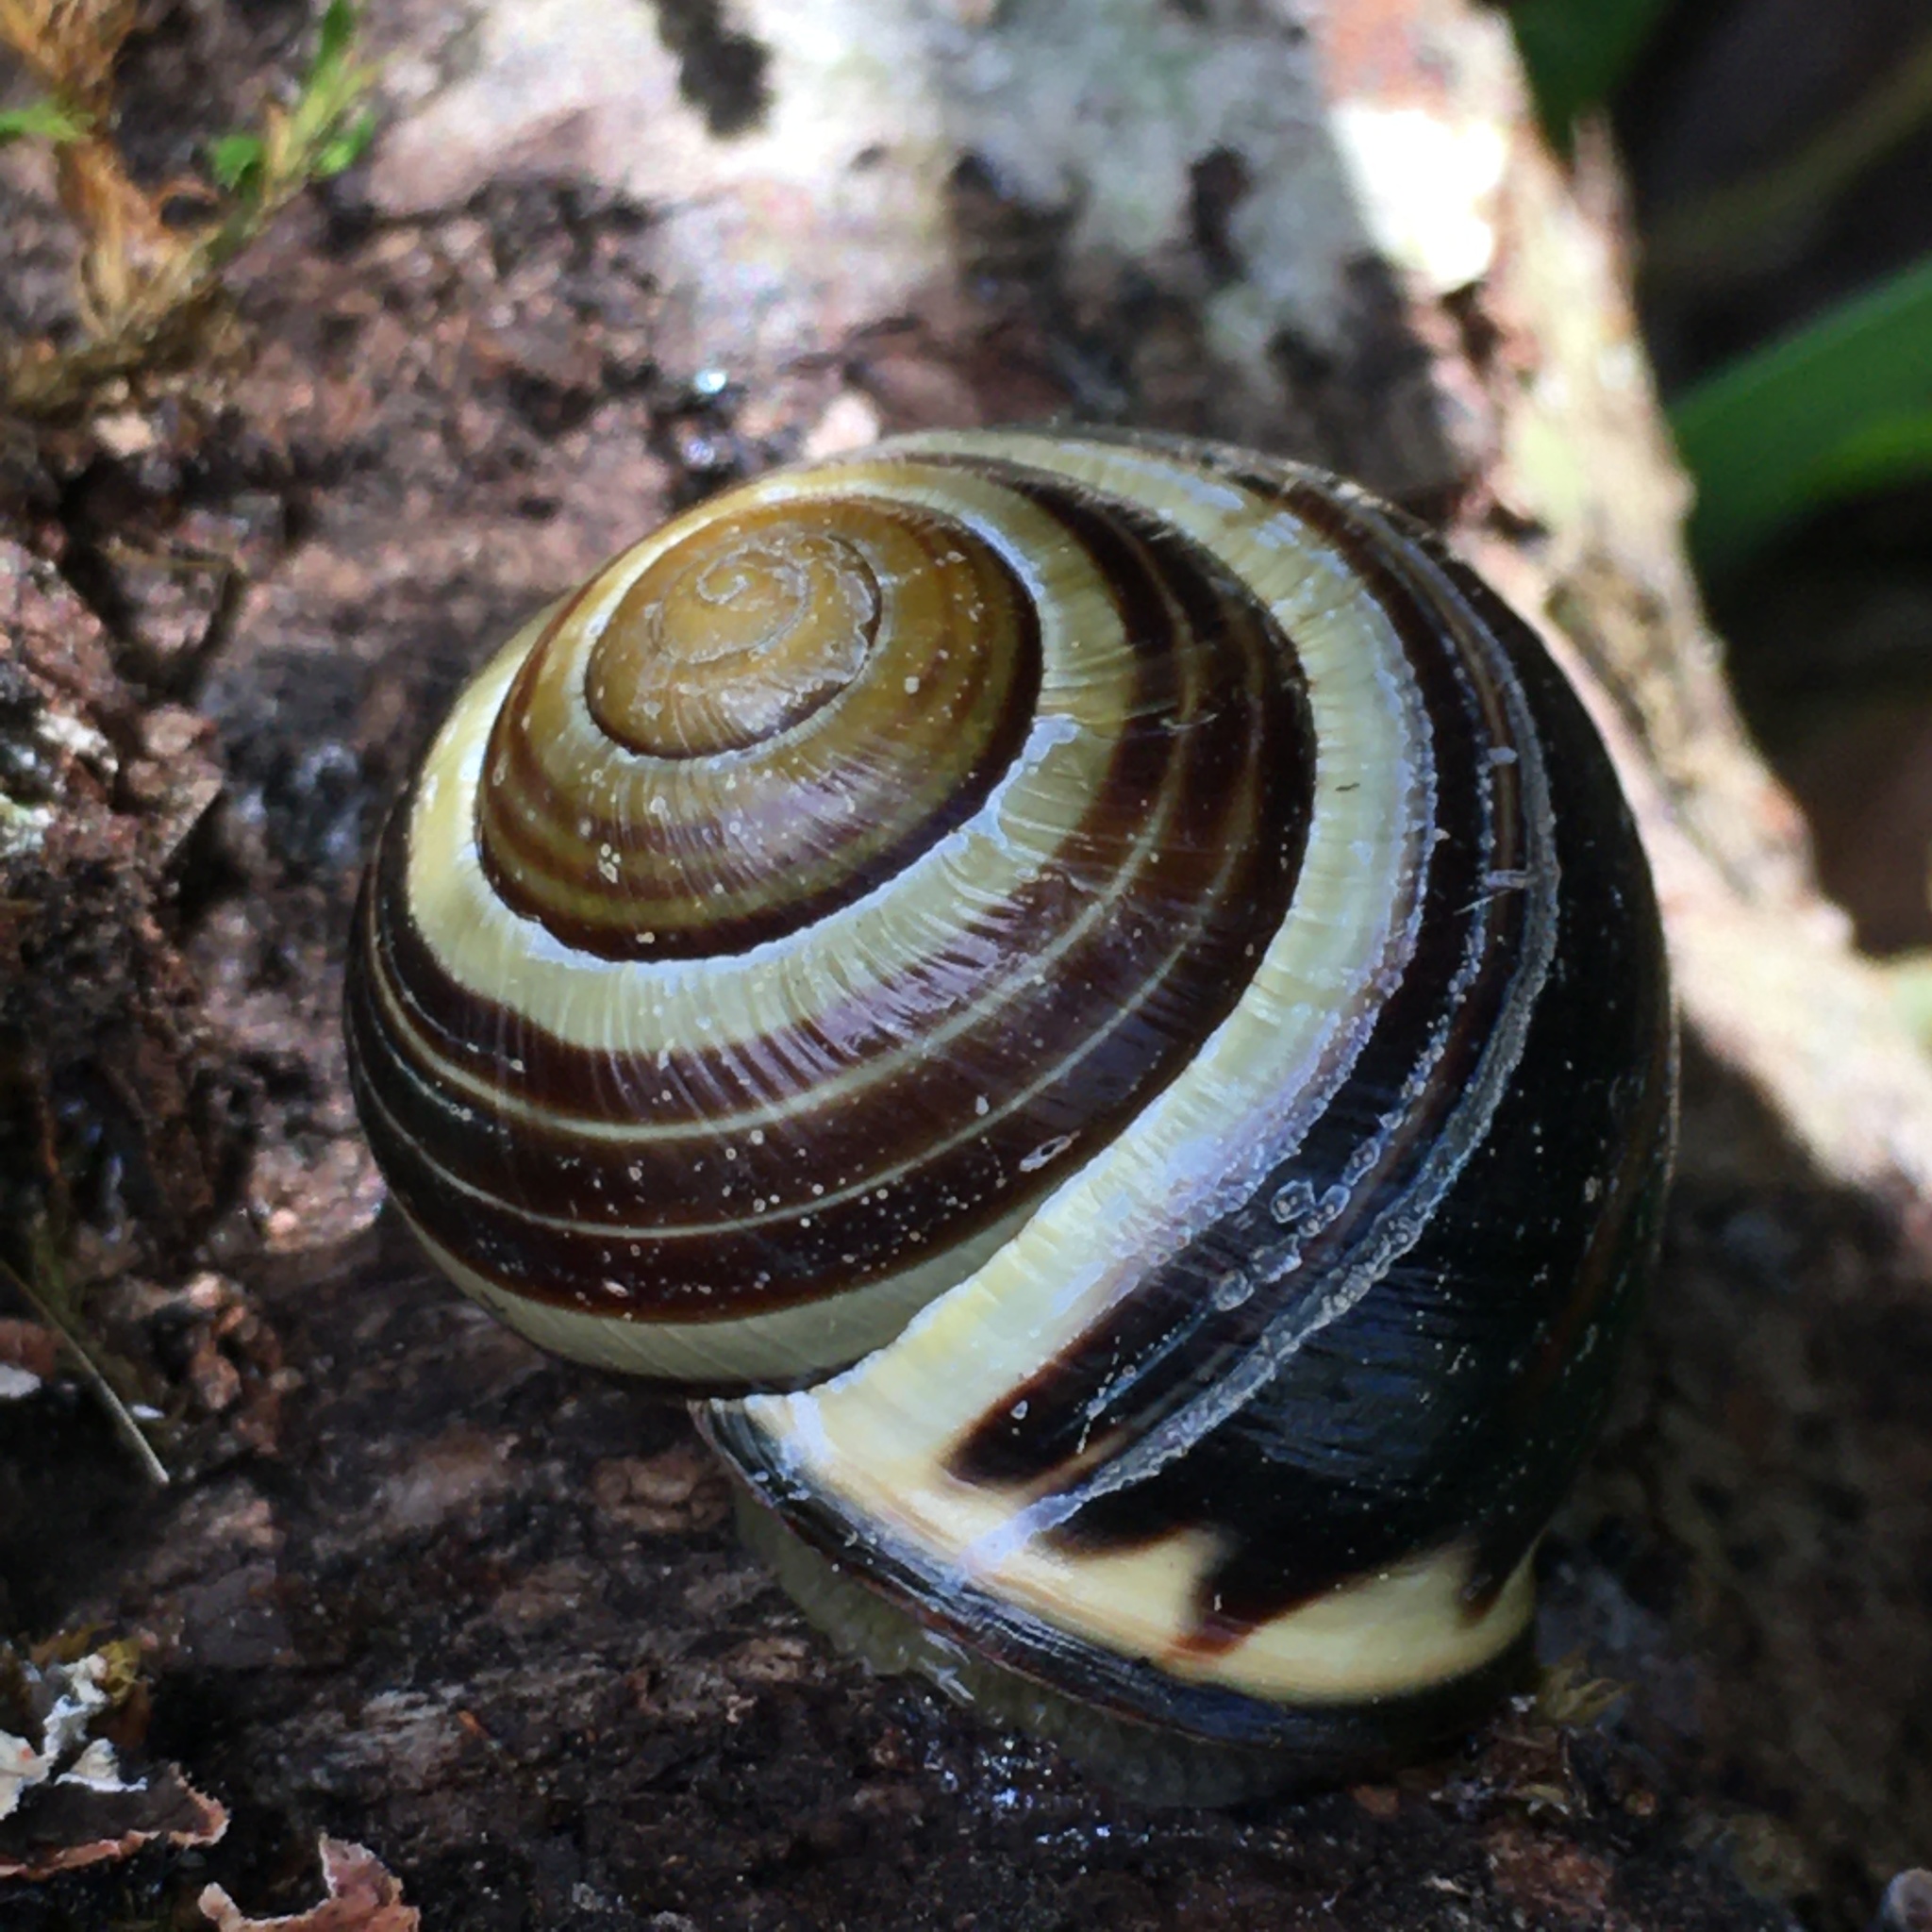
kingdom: Animalia
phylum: Mollusca
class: Gastropoda
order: Stylommatophora
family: Helicidae
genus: Cepaea
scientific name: Cepaea nemoralis
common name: Grovesnail
